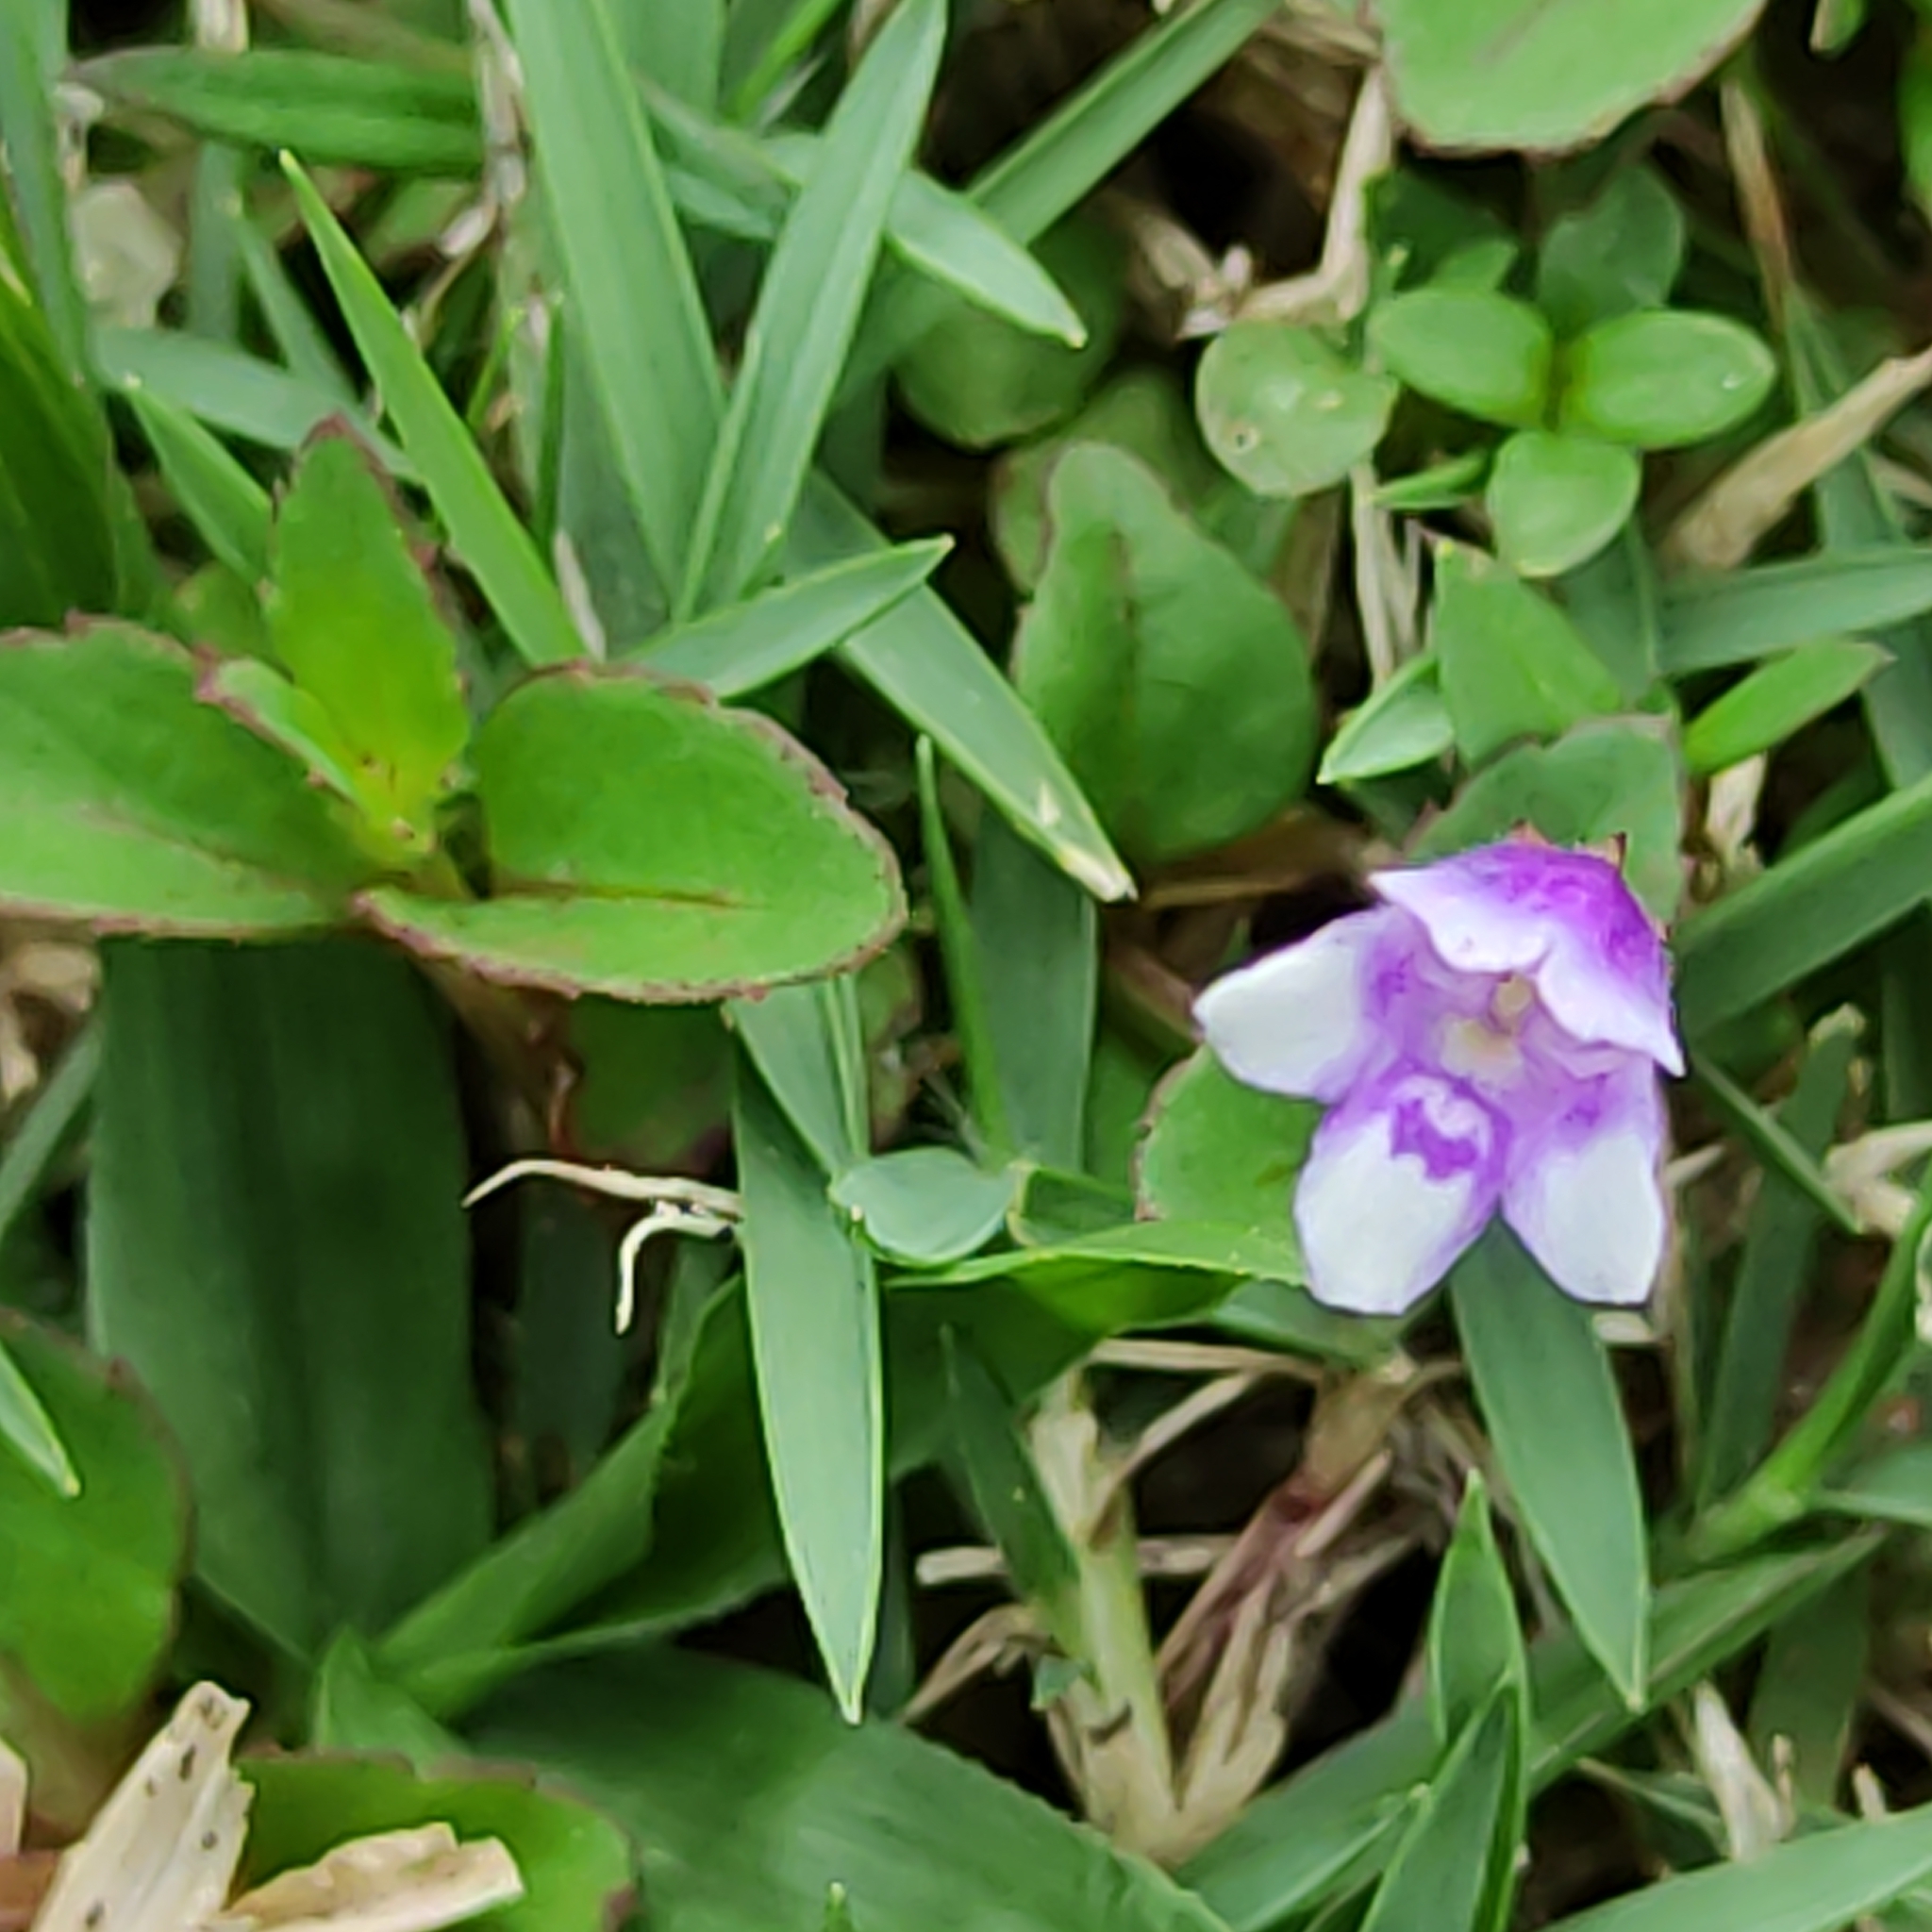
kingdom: Plantae
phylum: Tracheophyta
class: Magnoliopsida
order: Lamiales
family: Linderniaceae
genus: Torenia
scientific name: Torenia crustacea
